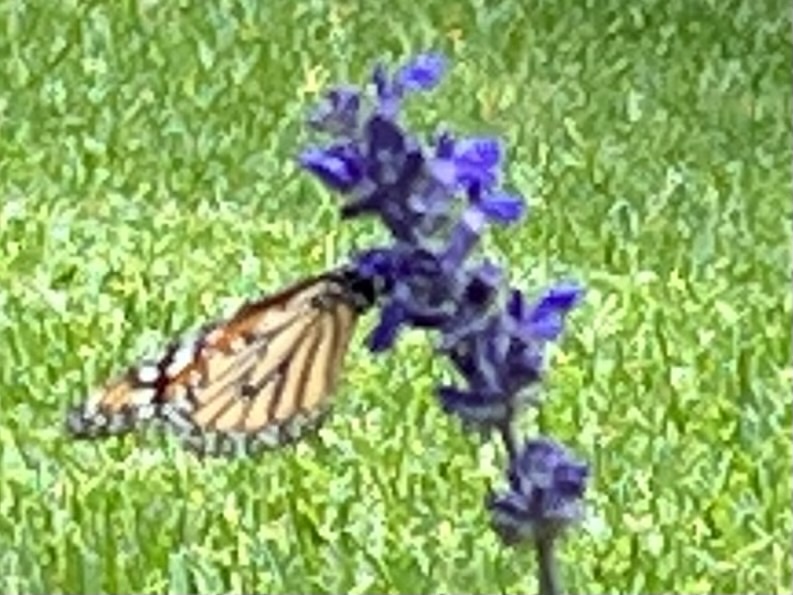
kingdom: Animalia
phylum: Arthropoda
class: Insecta
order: Lepidoptera
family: Nymphalidae
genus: Danaus
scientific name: Danaus plexippus
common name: Monarch
